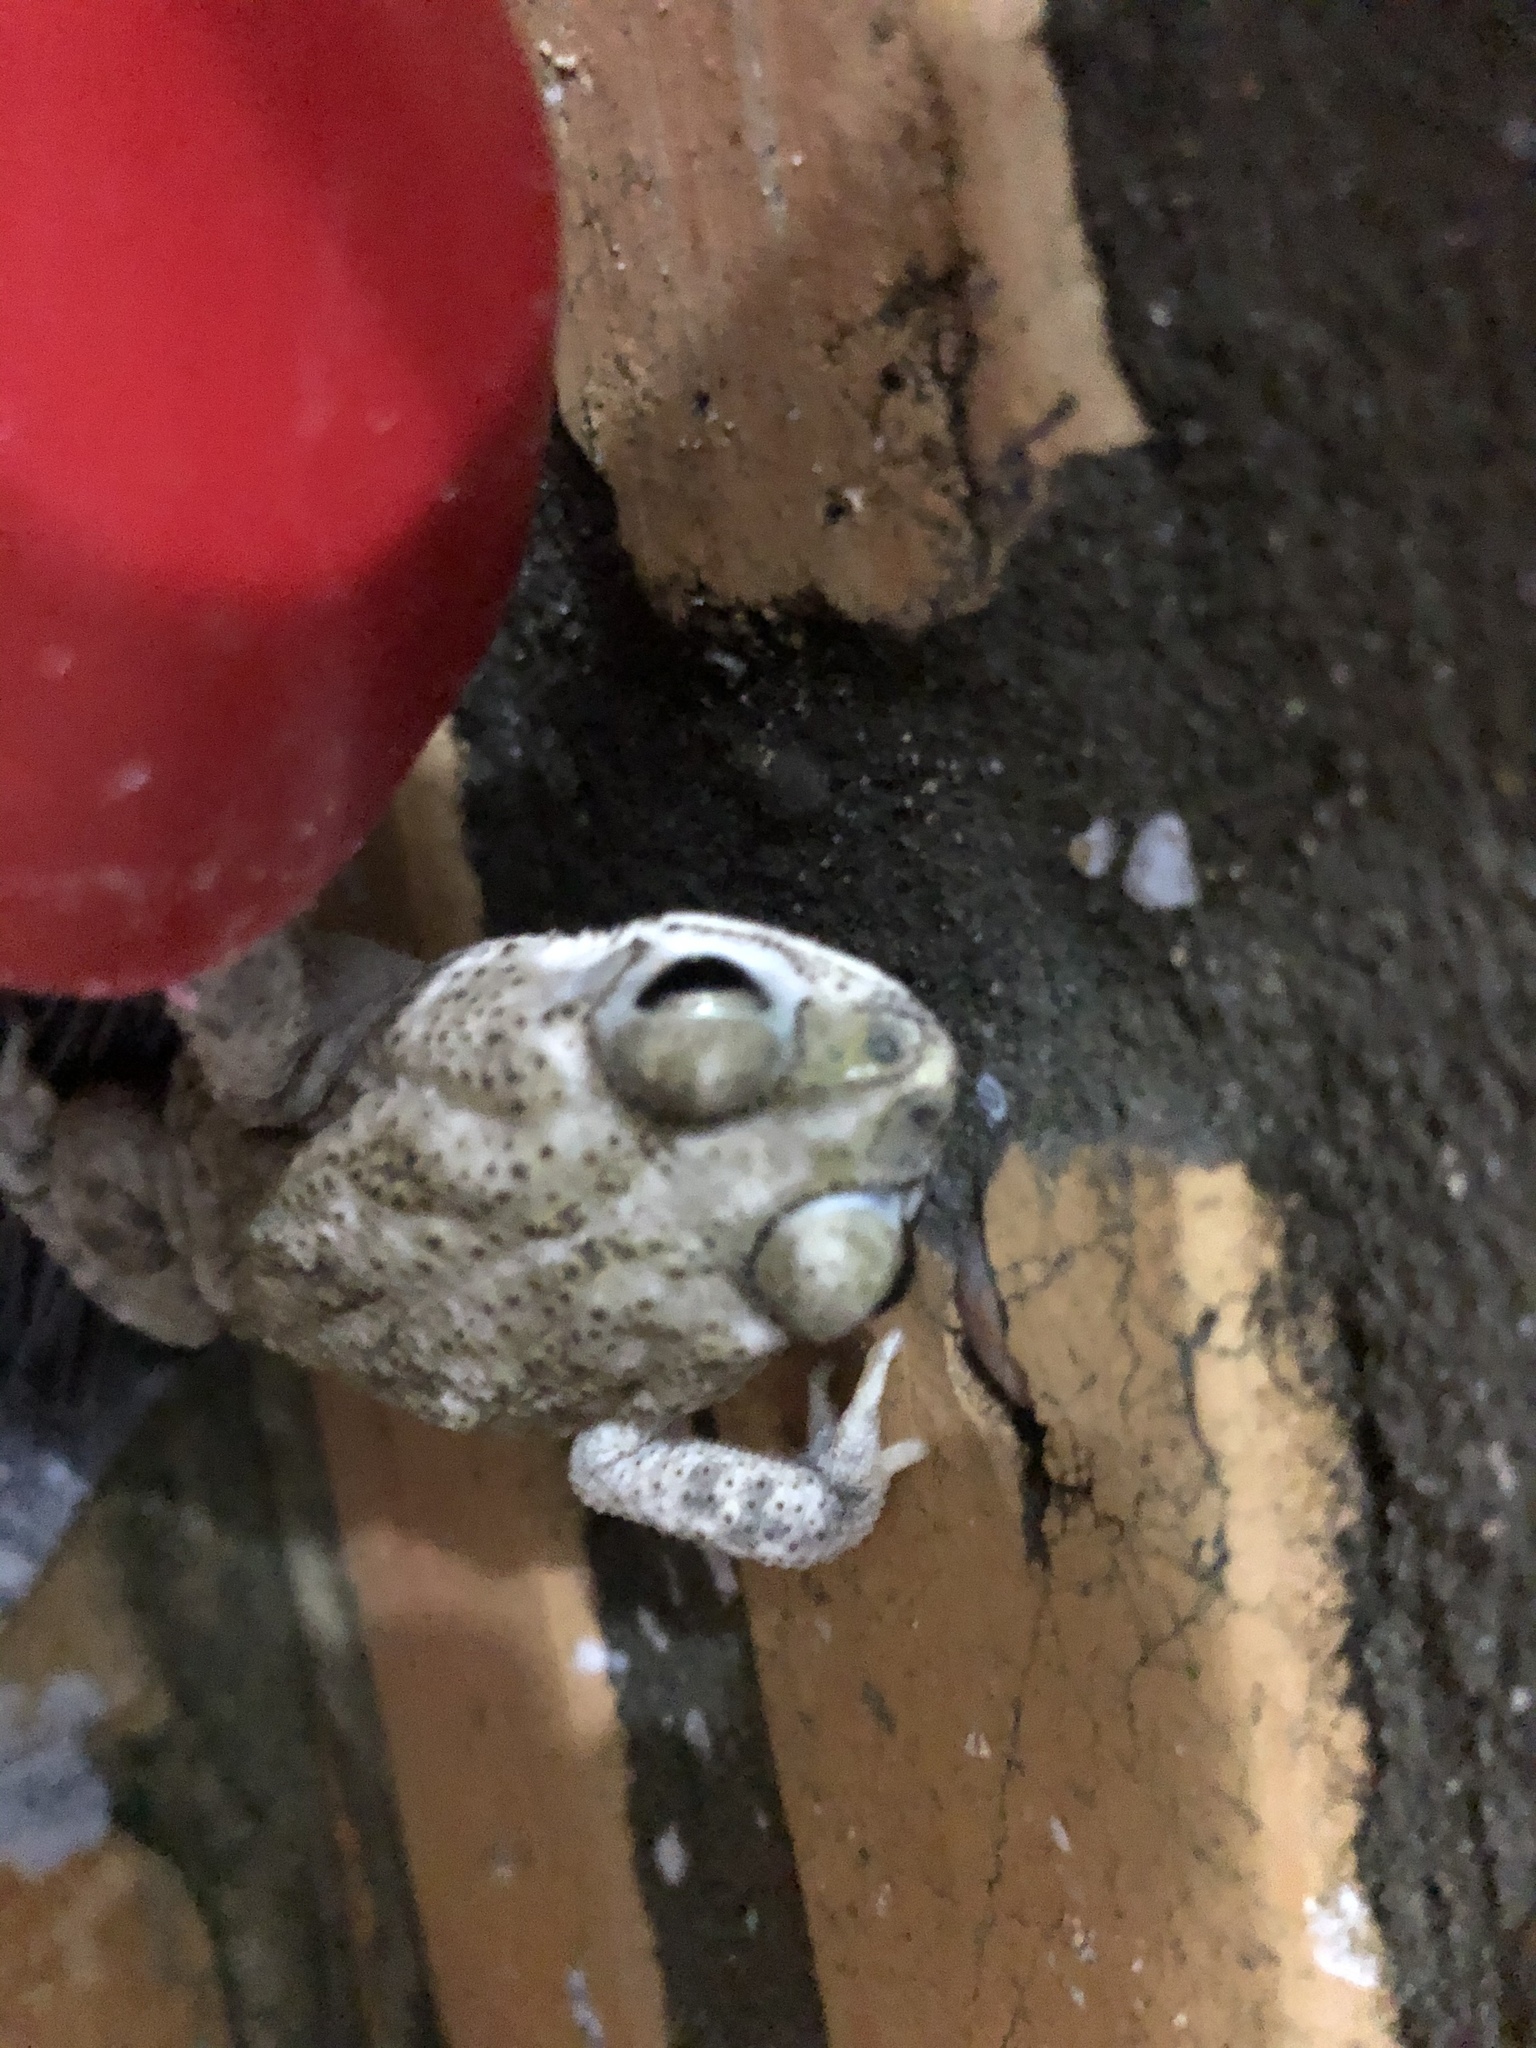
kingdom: Animalia
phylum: Chordata
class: Amphibia
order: Anura
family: Bufonidae
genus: Rhinella
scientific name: Rhinella granulosa
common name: Common lesser toad
